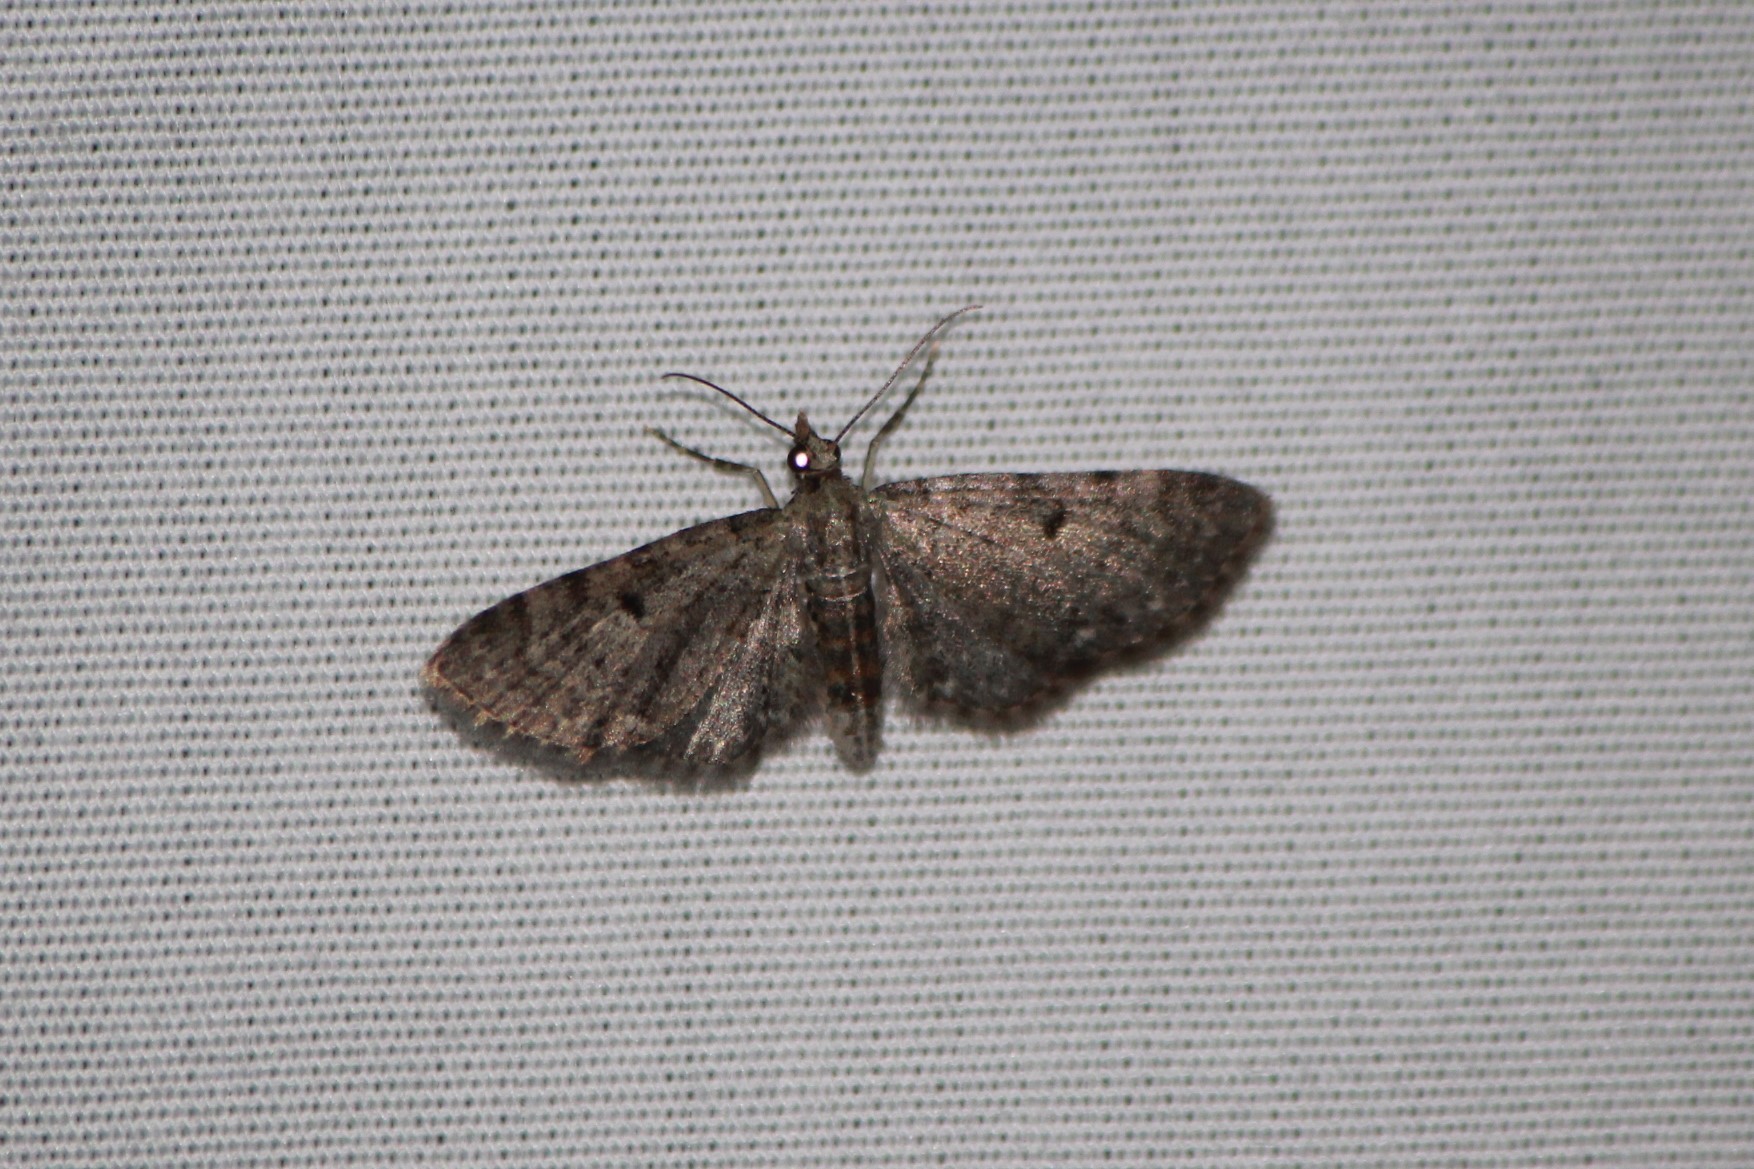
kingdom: Animalia
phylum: Arthropoda
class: Insecta
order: Lepidoptera
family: Geometridae
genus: Eupithecia
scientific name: Eupithecia miserulata
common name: Common eupithecia
